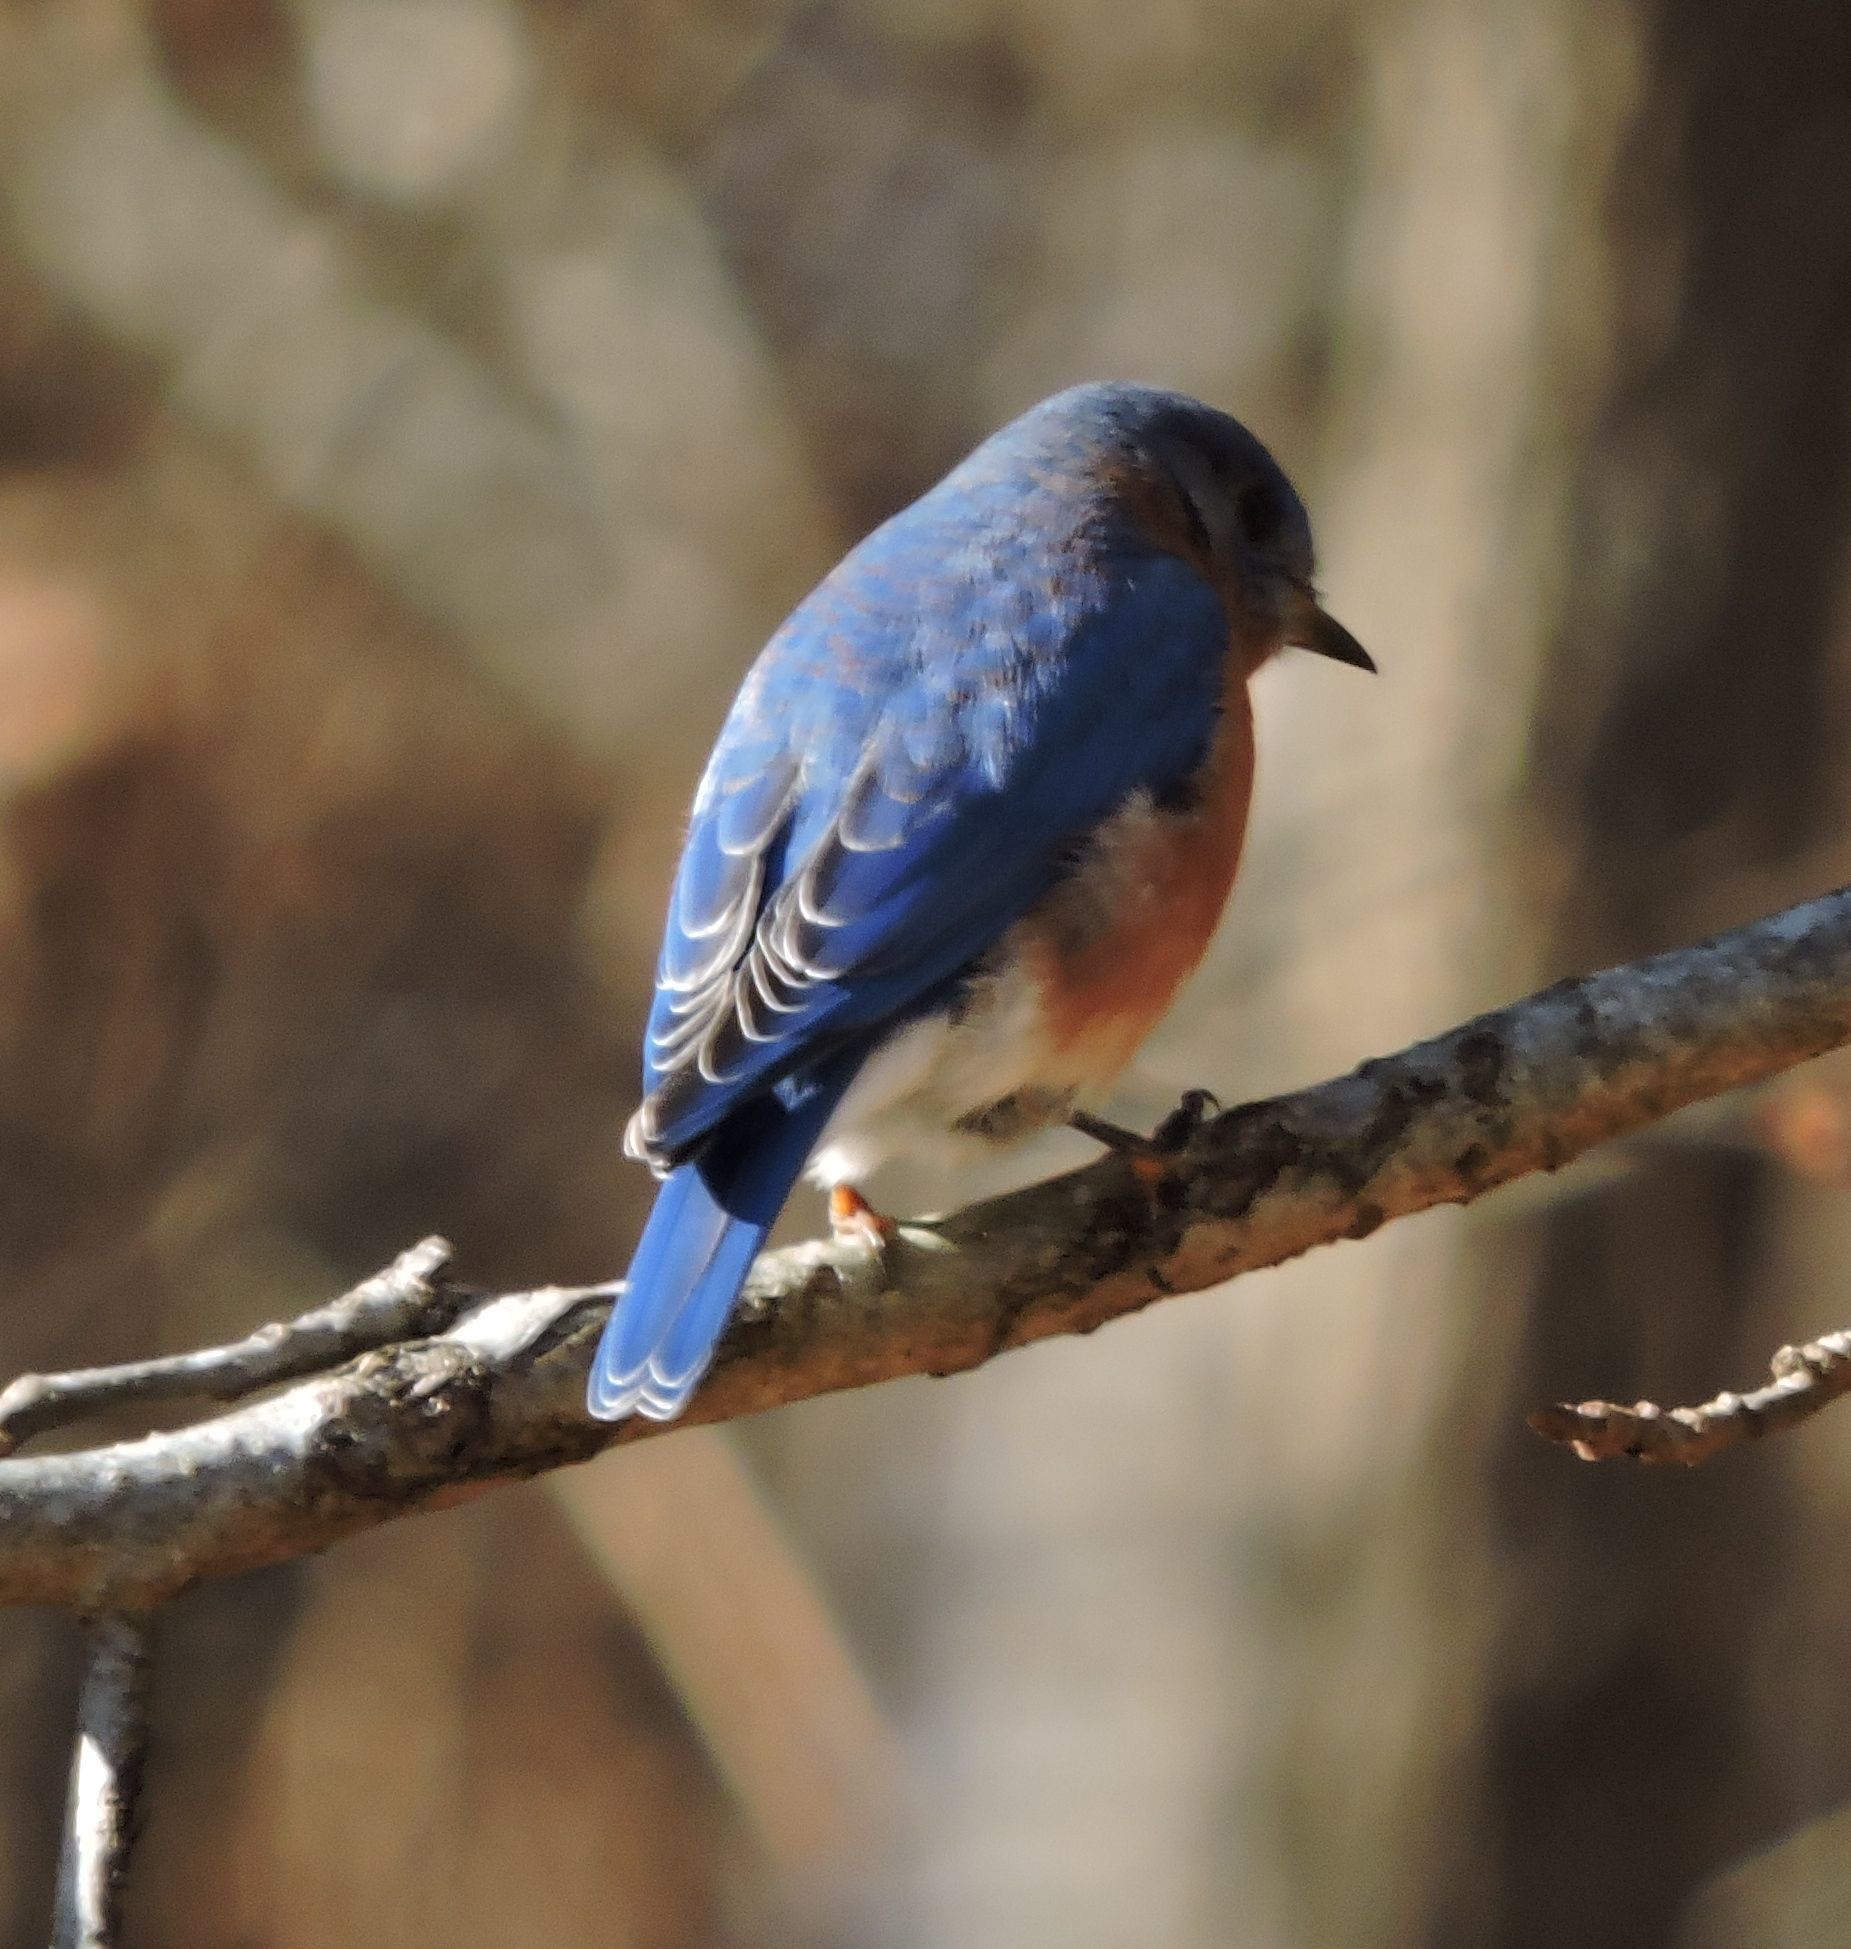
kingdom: Animalia
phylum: Chordata
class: Aves
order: Passeriformes
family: Turdidae
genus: Sialia
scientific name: Sialia sialis
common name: Eastern bluebird
